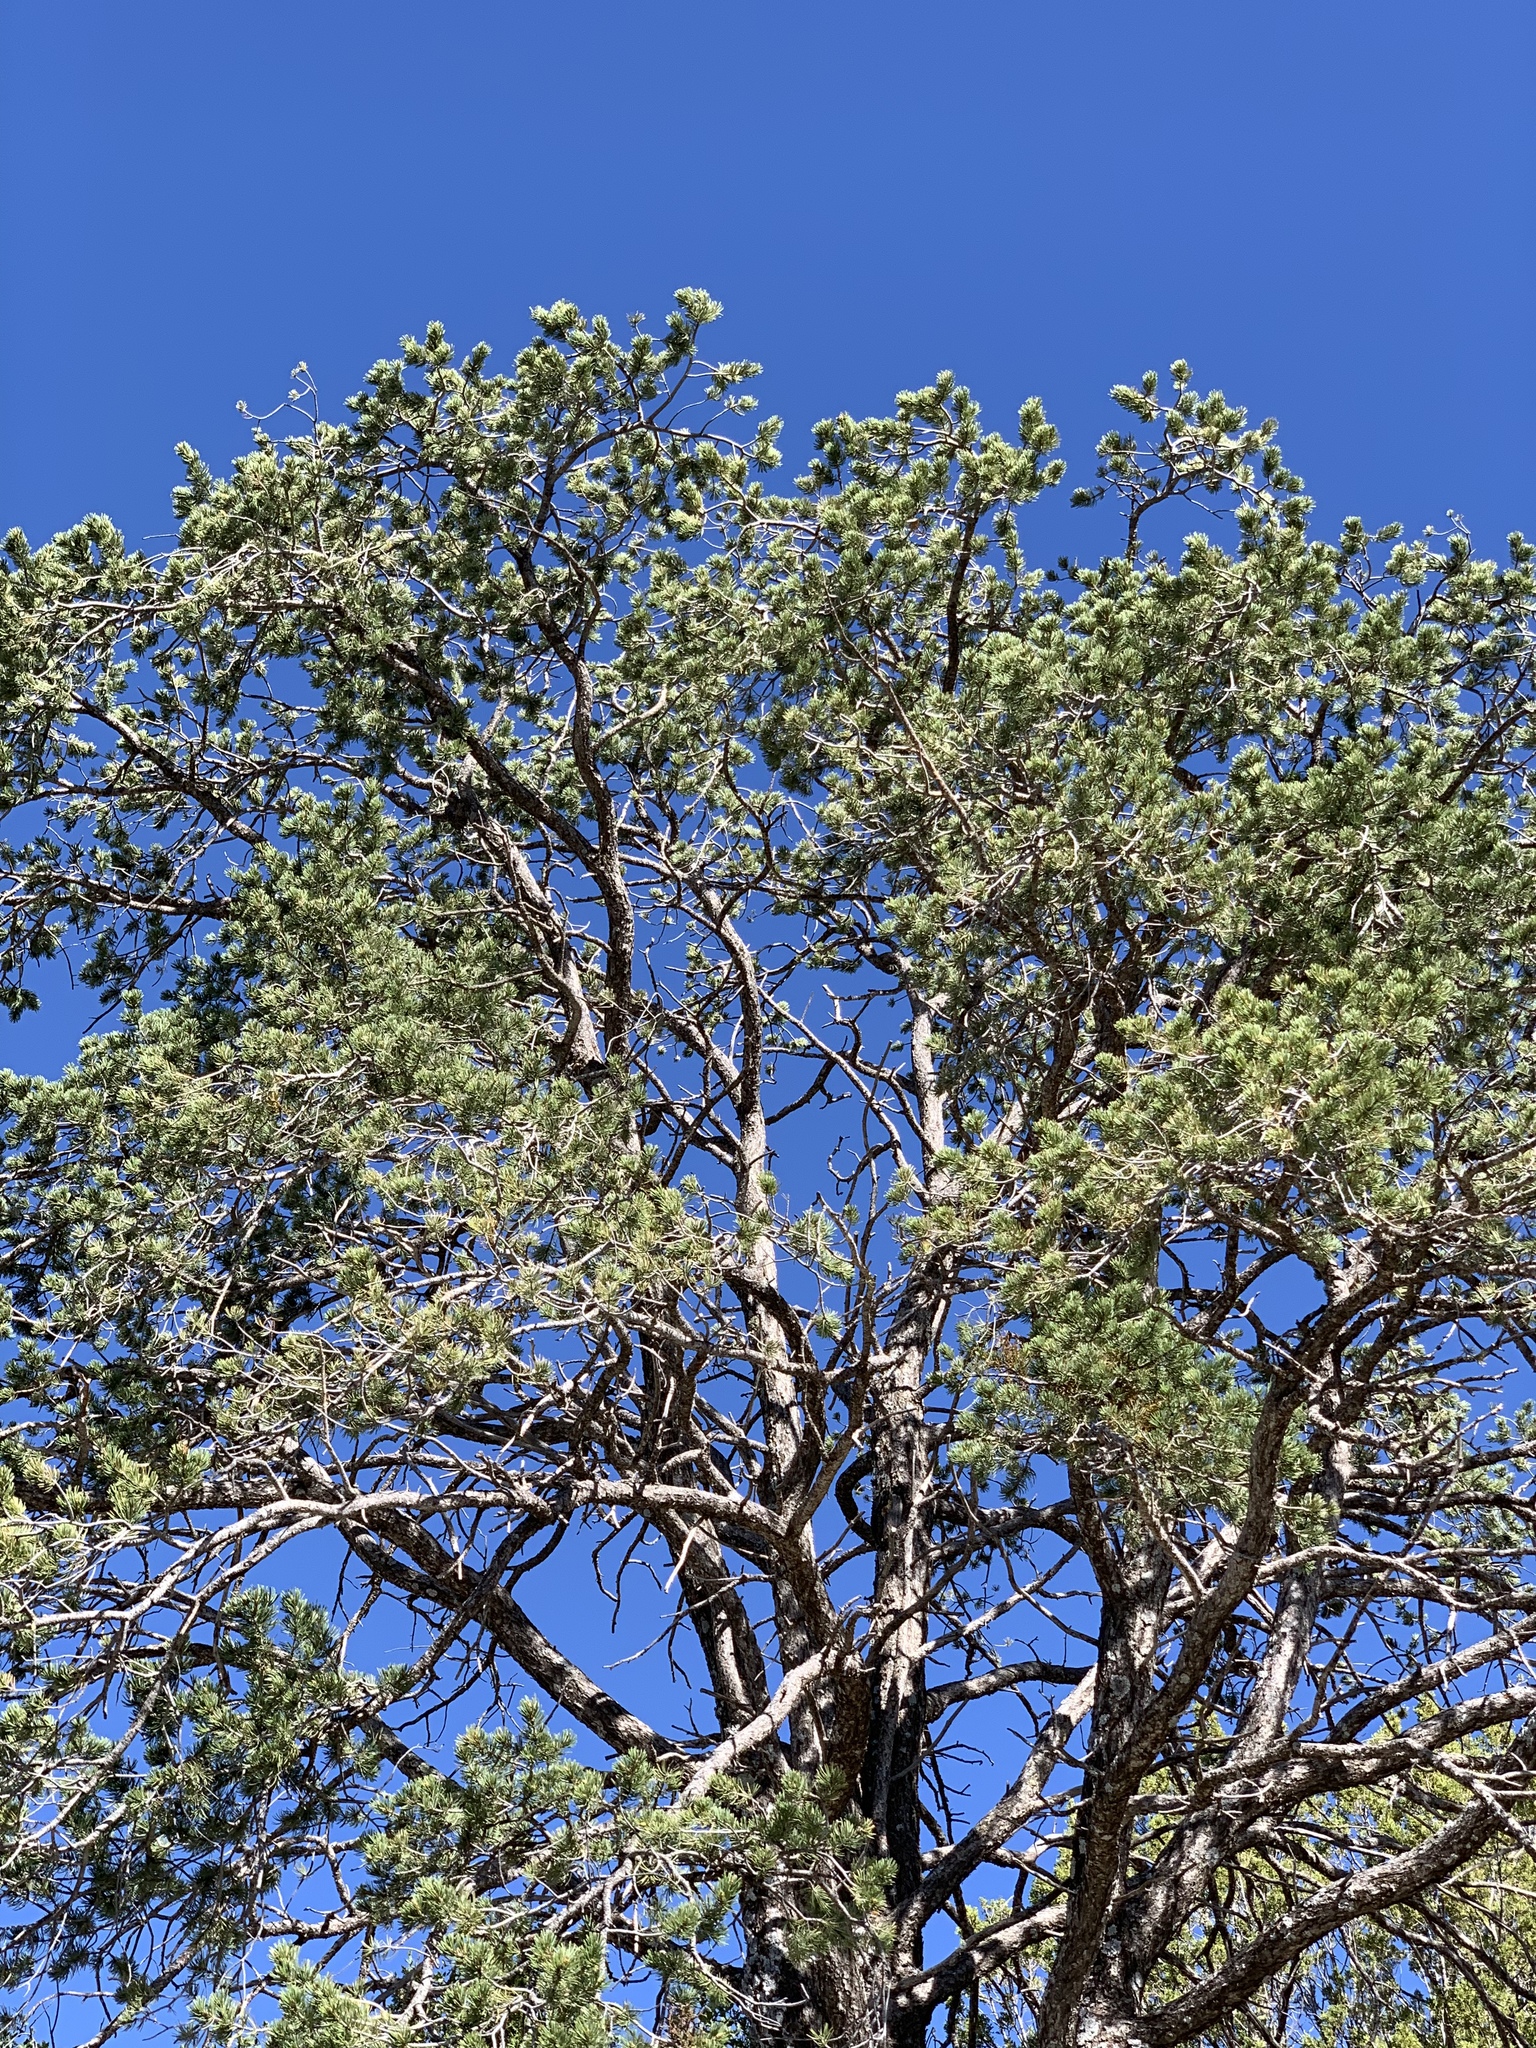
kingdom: Plantae
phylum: Tracheophyta
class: Pinopsida
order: Pinales
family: Pinaceae
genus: Pinus
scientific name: Pinus edulis
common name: Colorado pinyon
